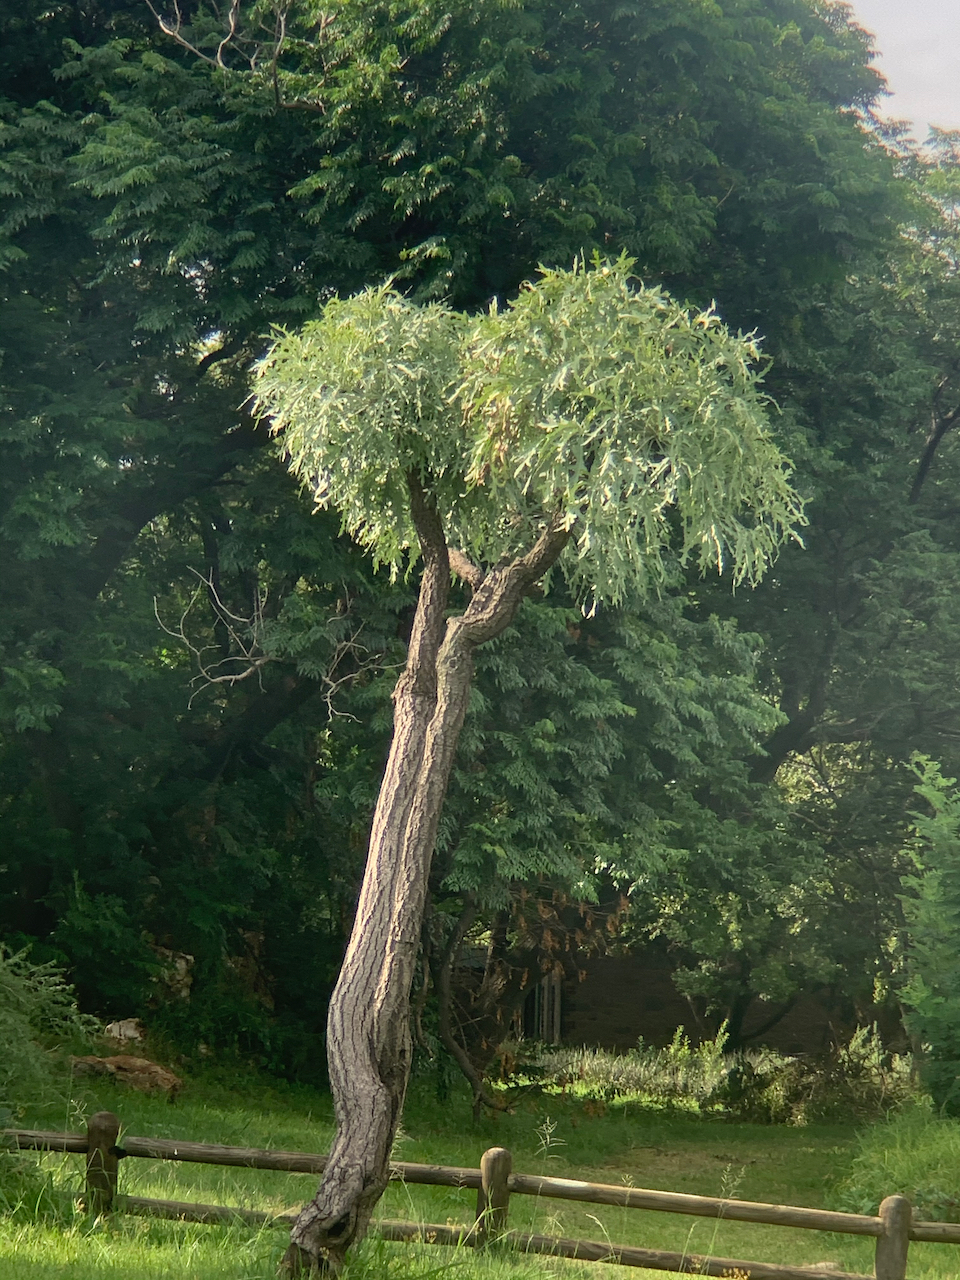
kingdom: Plantae
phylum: Tracheophyta
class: Magnoliopsida
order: Apiales
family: Araliaceae
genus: Cussonia
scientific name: Cussonia paniculata
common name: Cabbagetree
